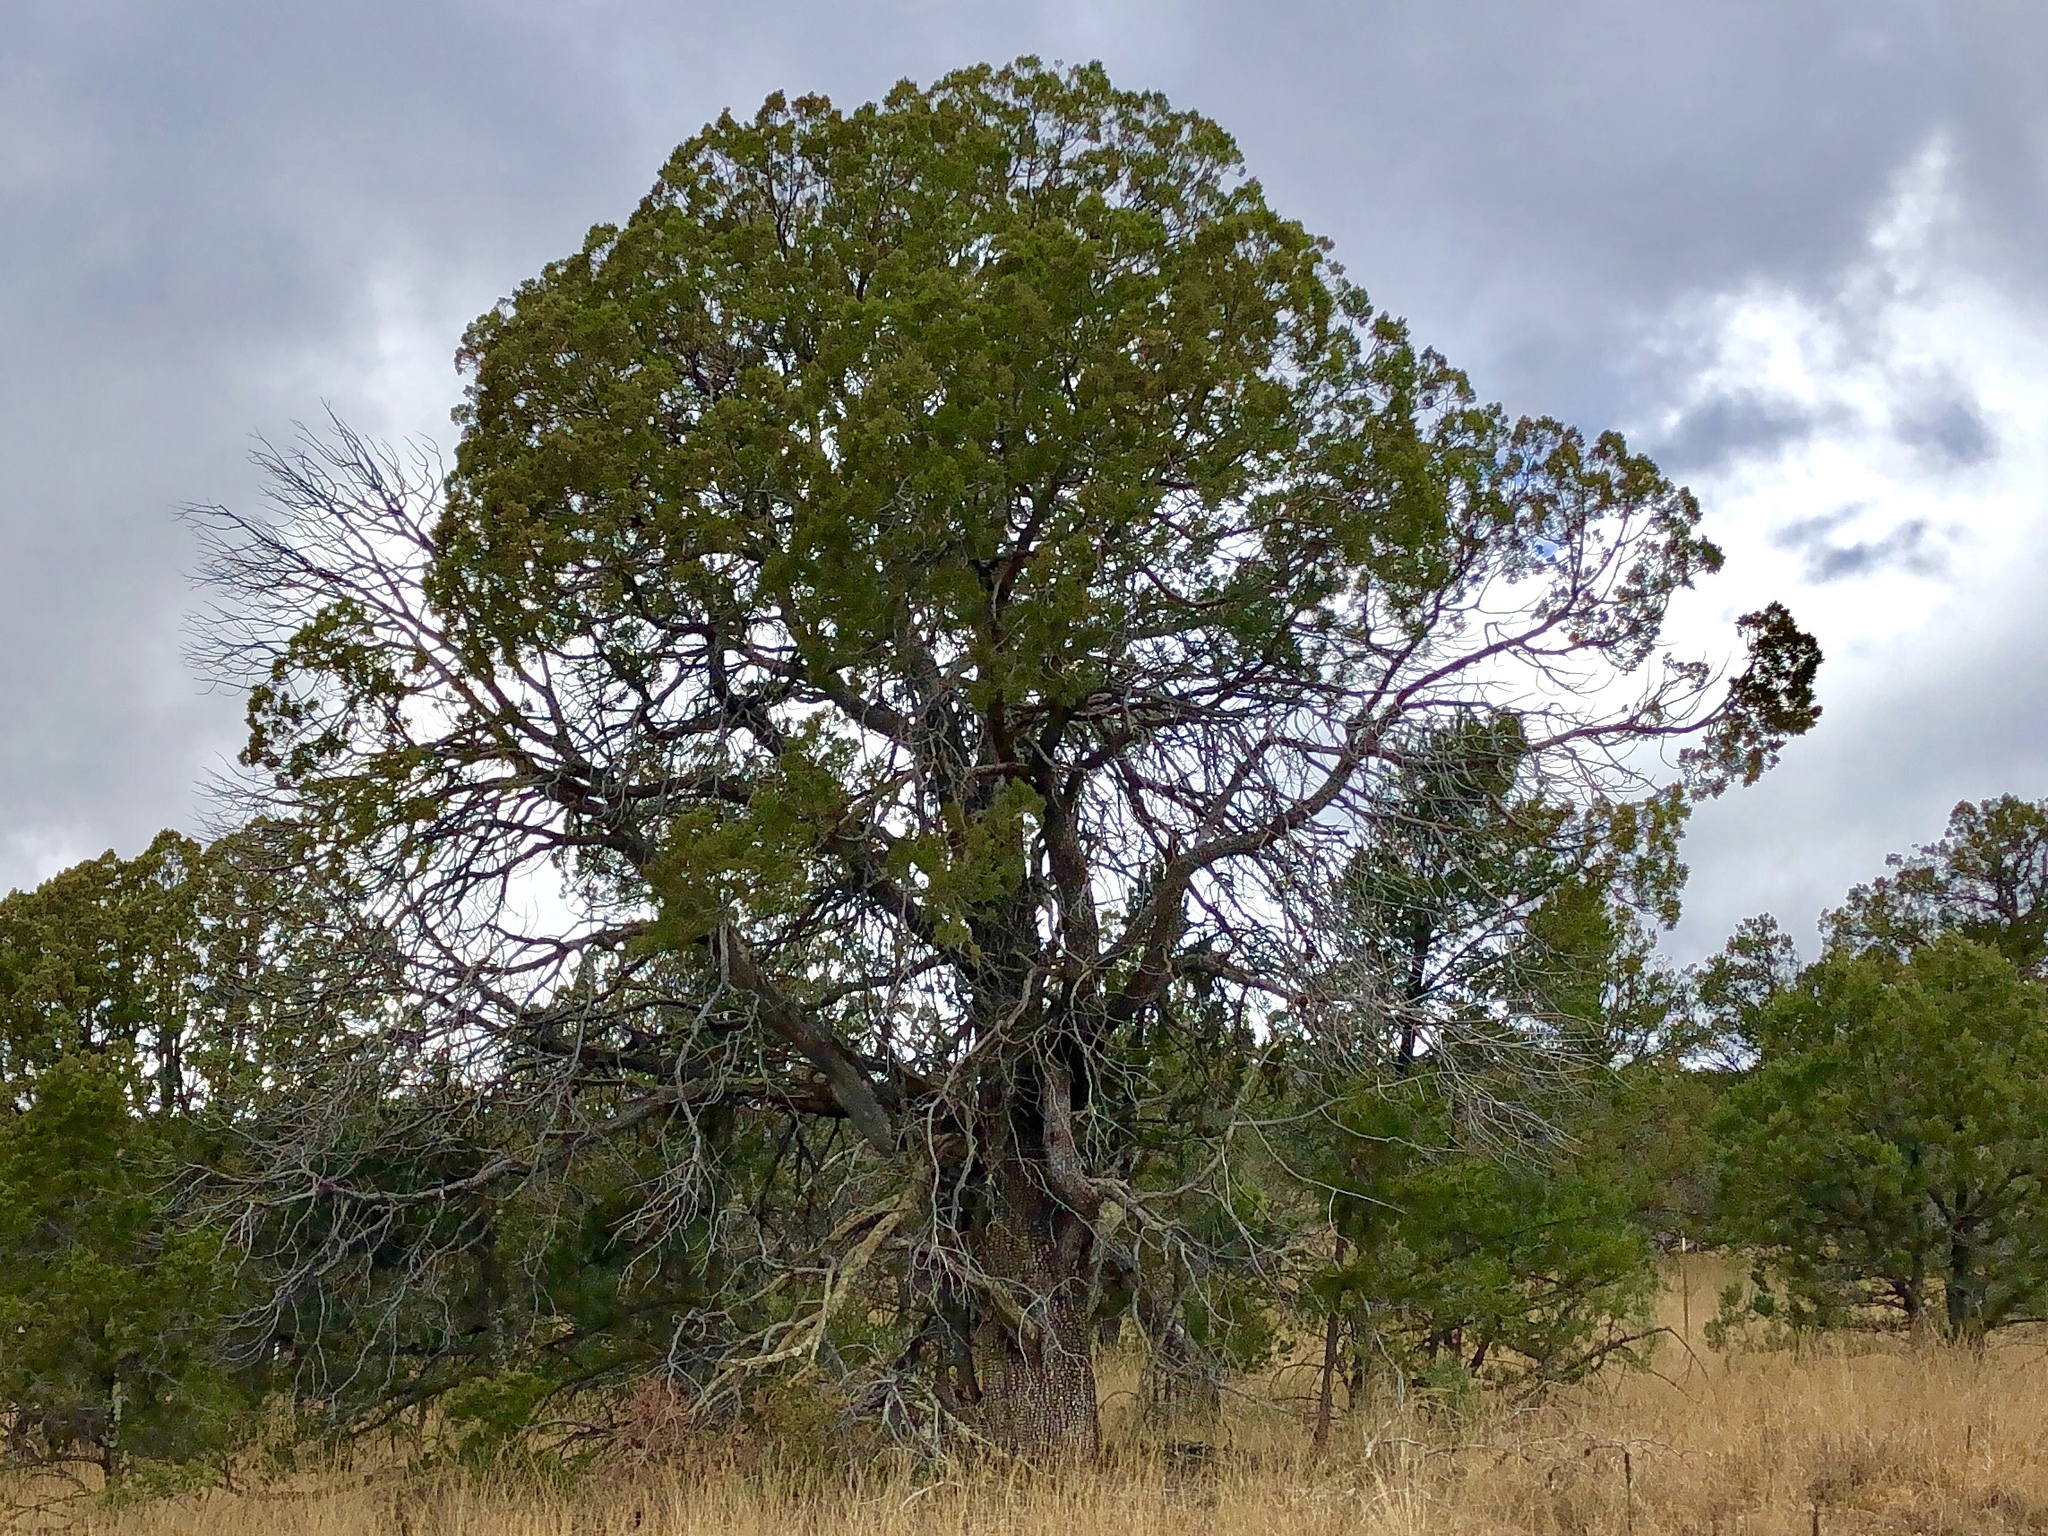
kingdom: Plantae
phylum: Tracheophyta
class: Pinopsida
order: Pinales
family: Cupressaceae
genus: Juniperus
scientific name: Juniperus deppeana
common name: Alligator juniper
